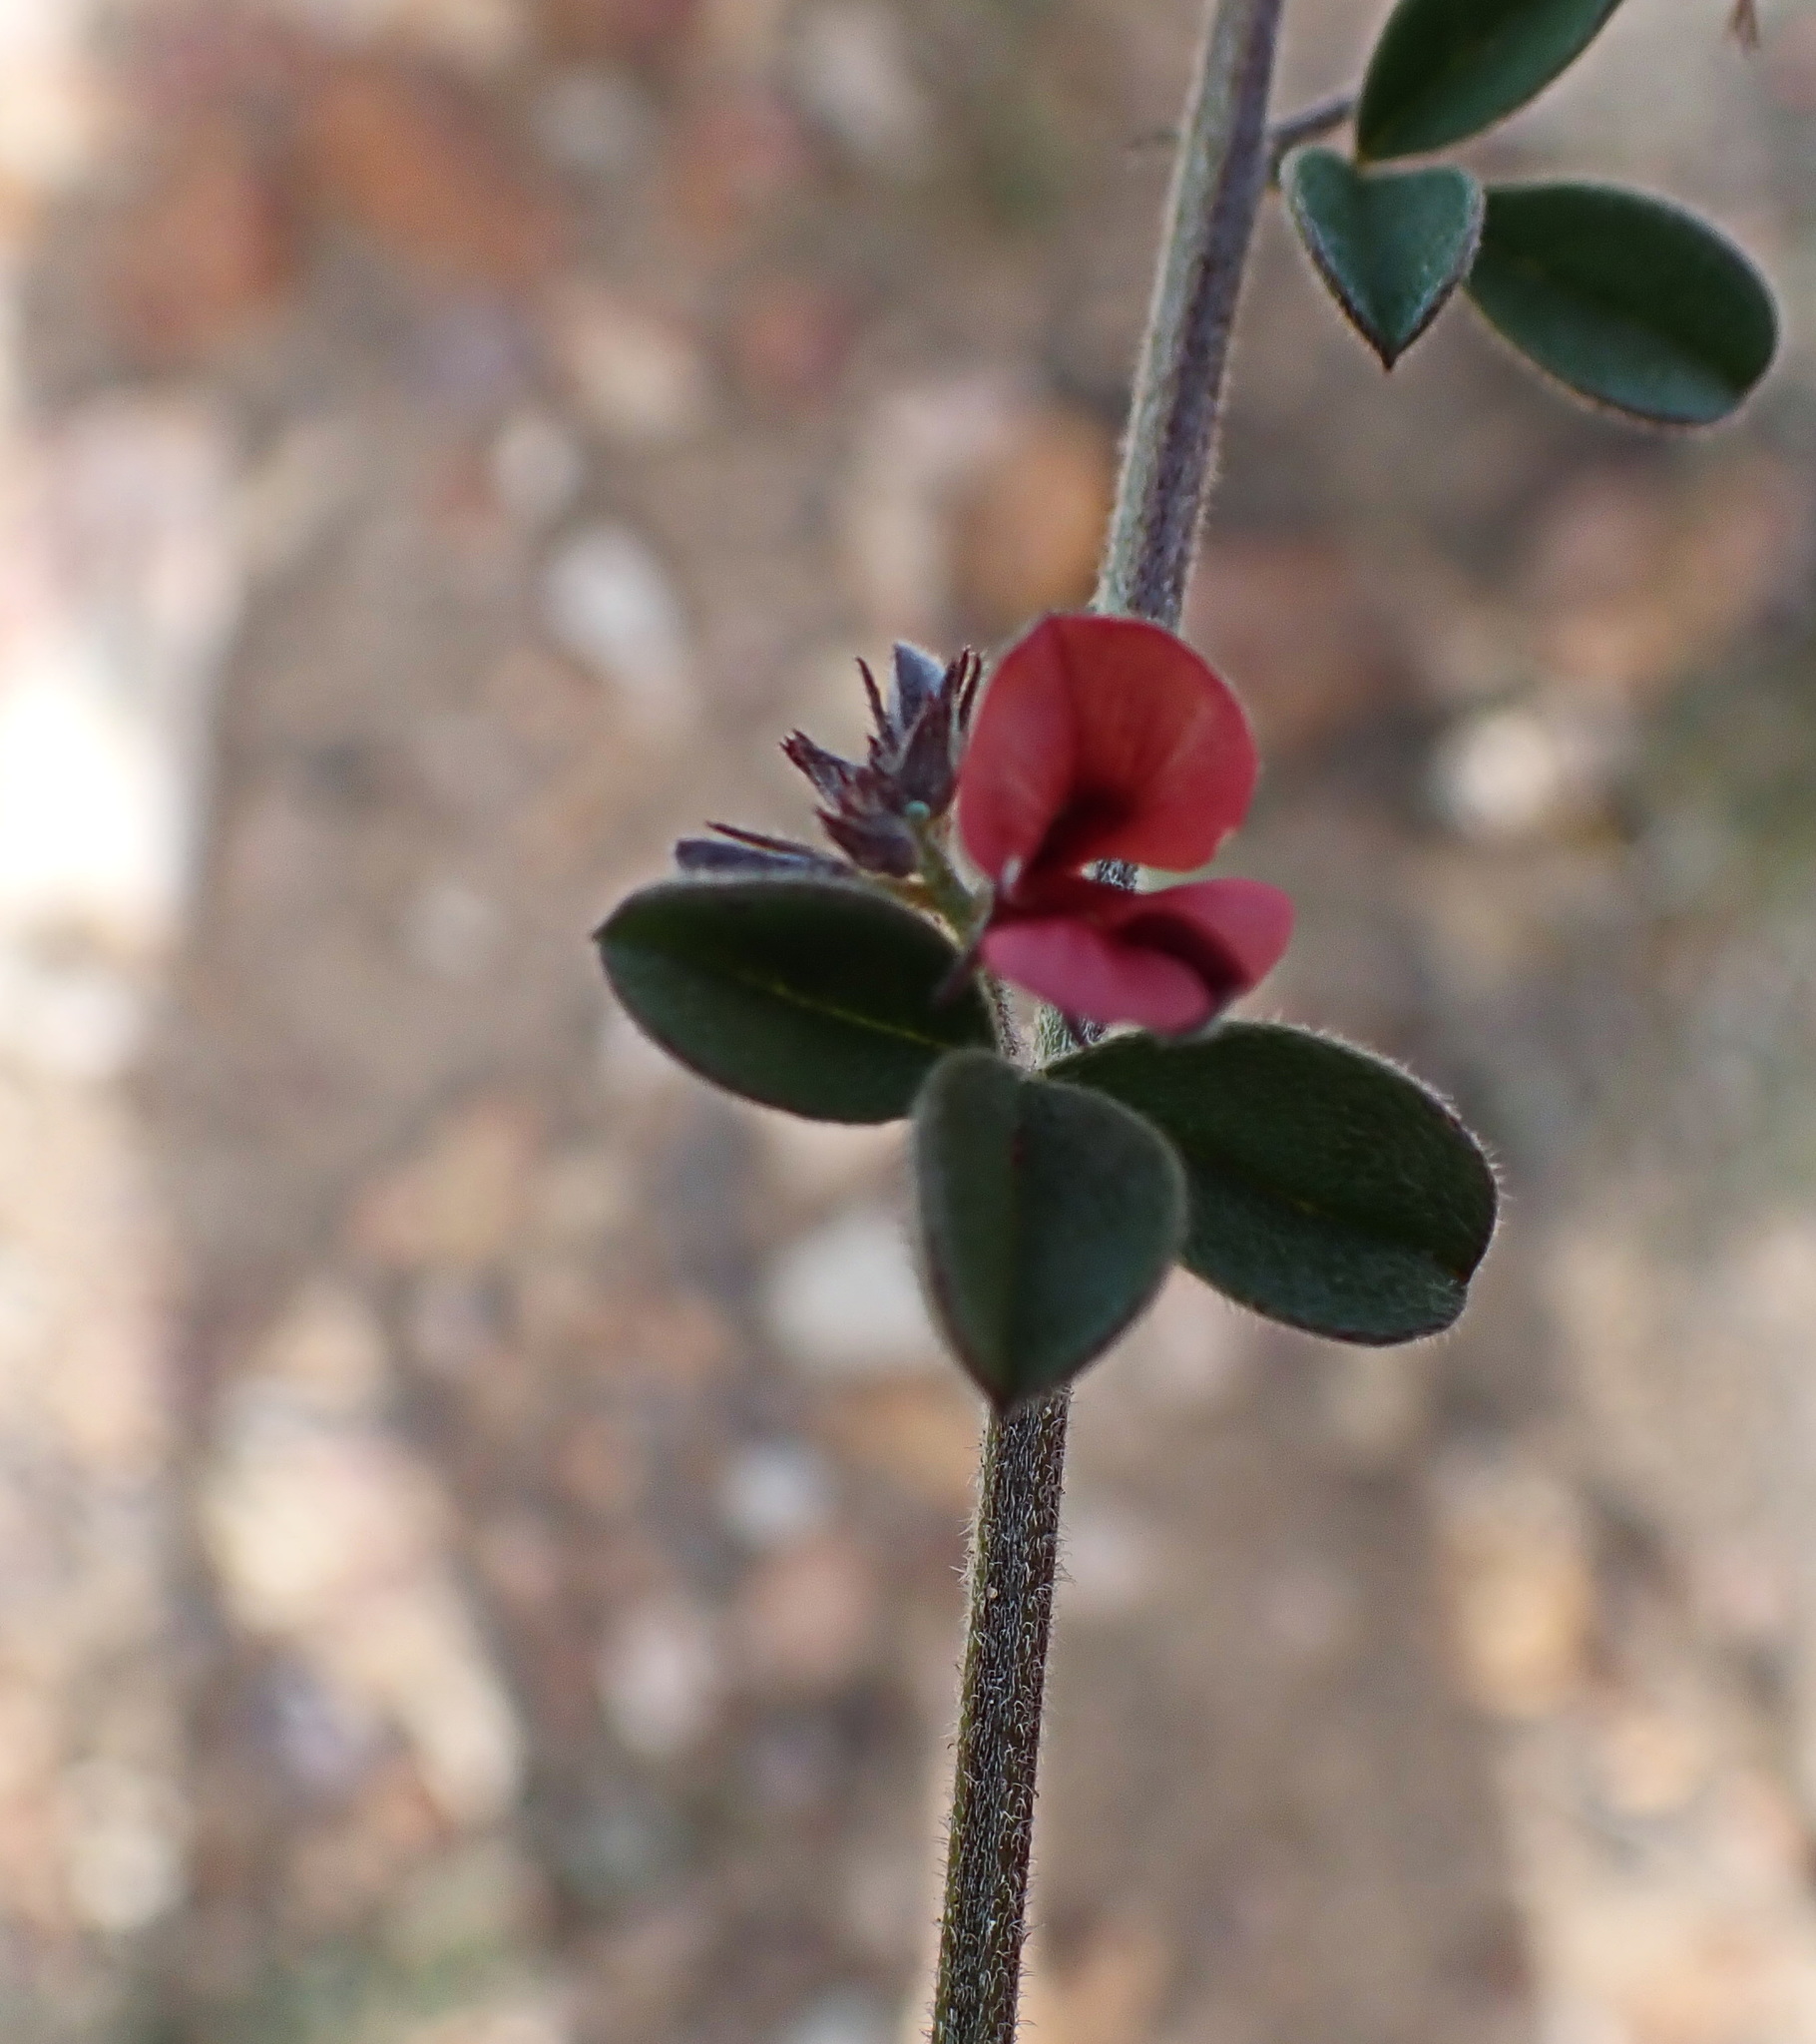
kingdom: Plantae
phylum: Tracheophyta
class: Magnoliopsida
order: Fabales
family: Fabaceae
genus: Indigofera
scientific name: Indigofera priorii
